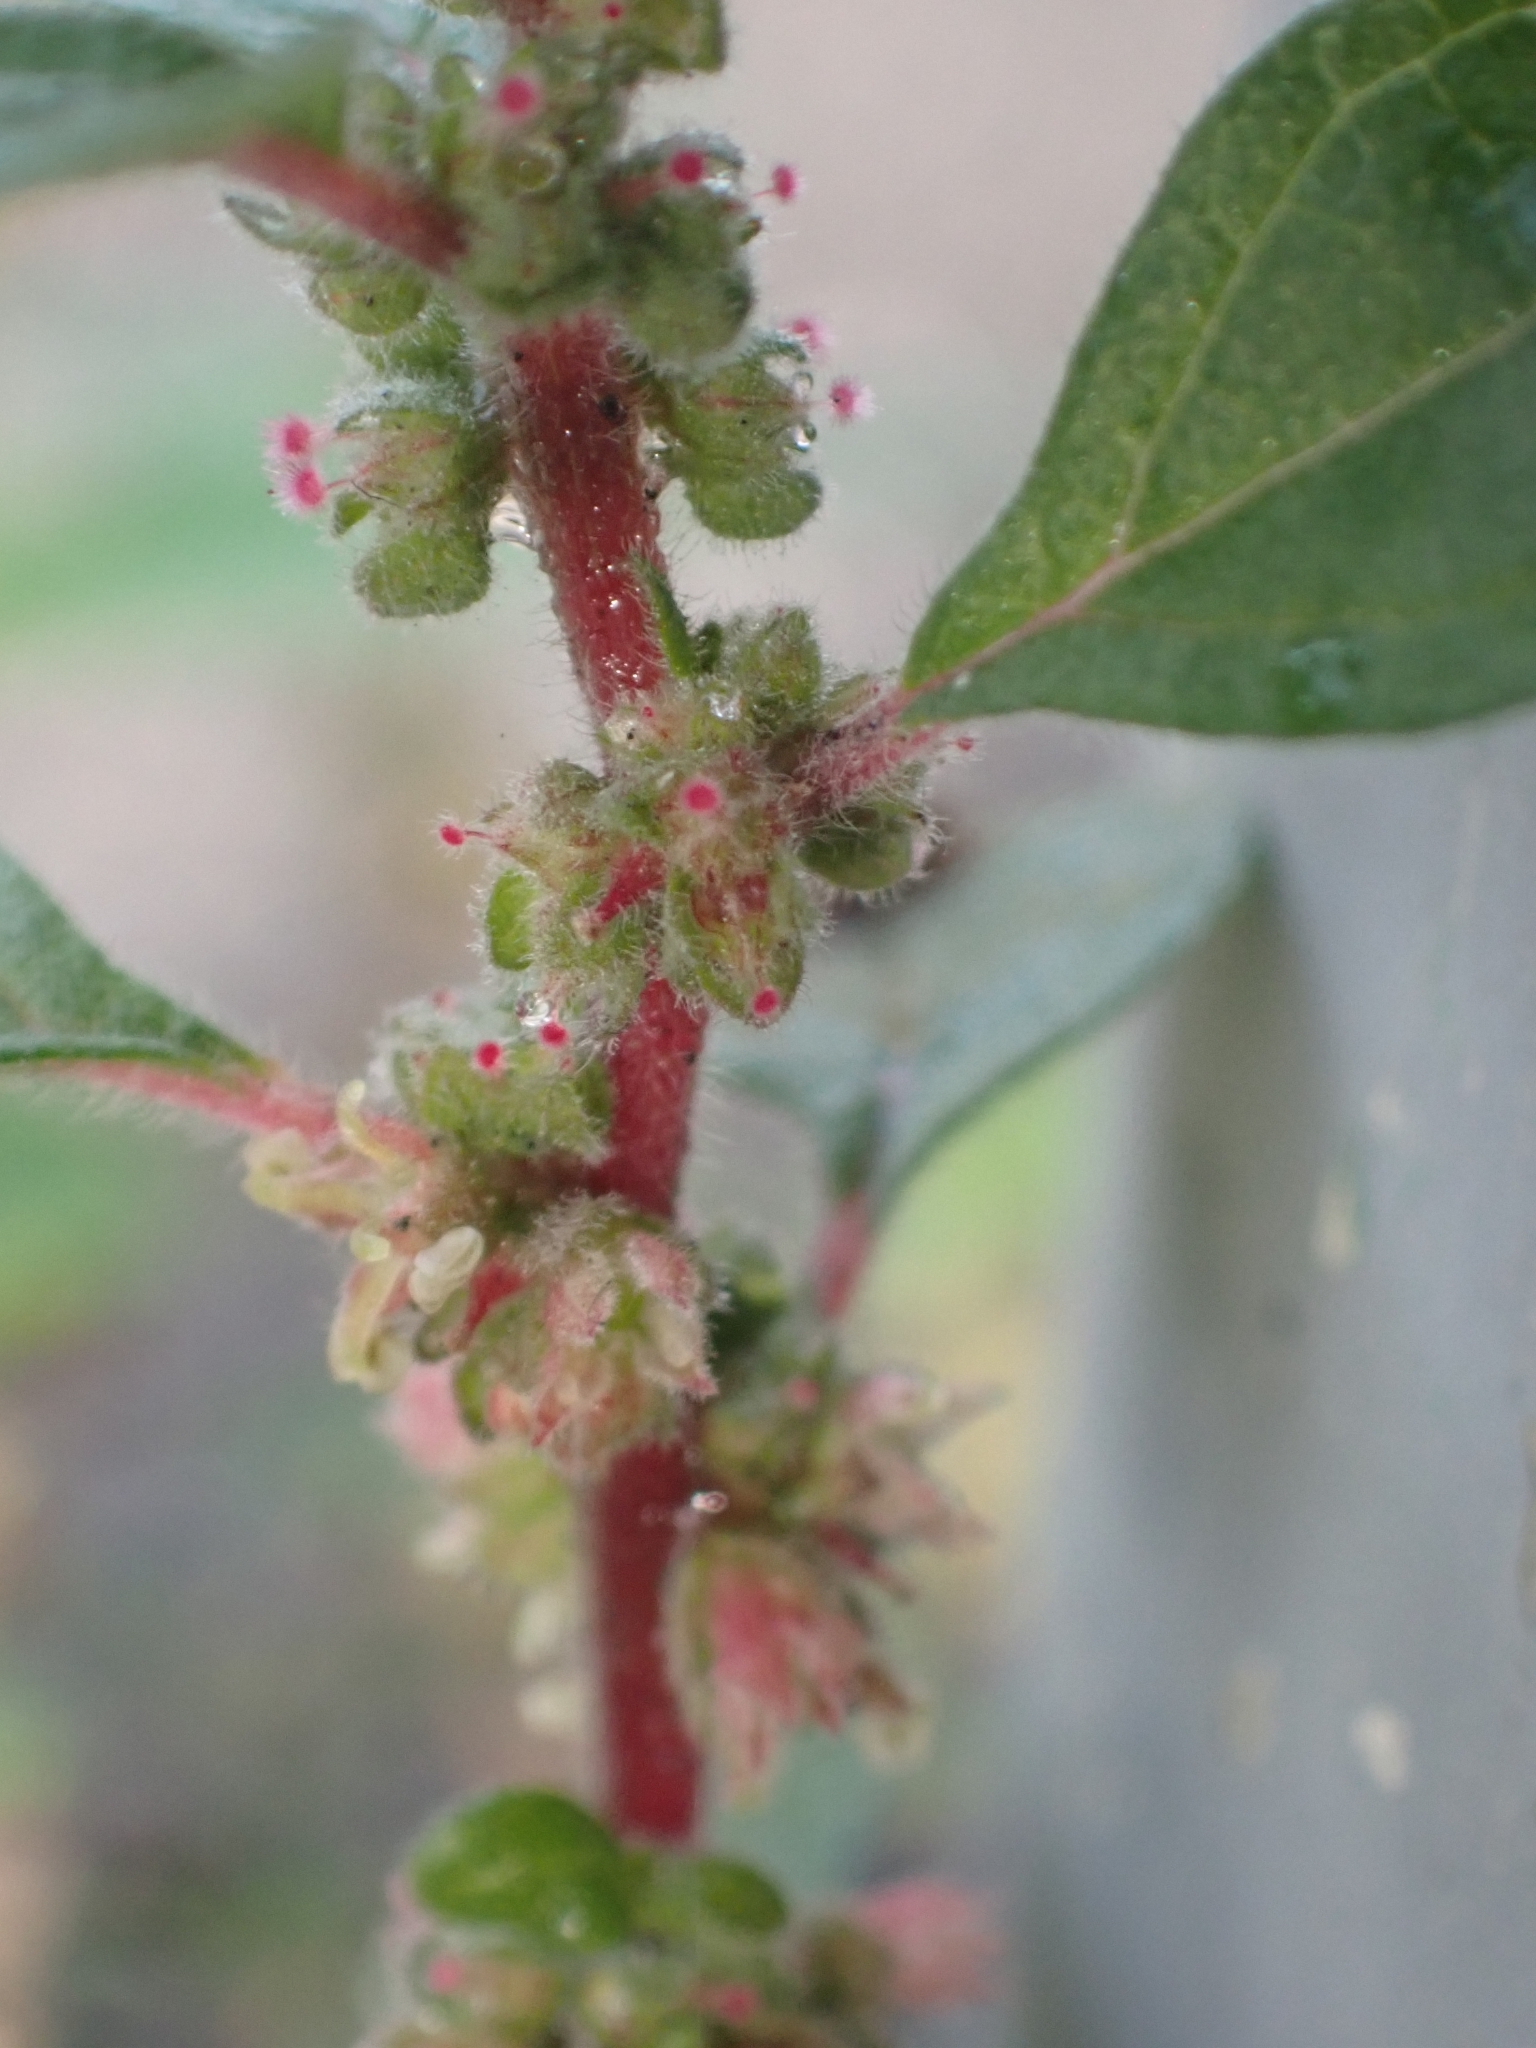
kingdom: Plantae
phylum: Tracheophyta
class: Magnoliopsida
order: Rosales
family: Urticaceae
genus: Parietaria
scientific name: Parietaria judaica
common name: Pellitory-of-the-wall
